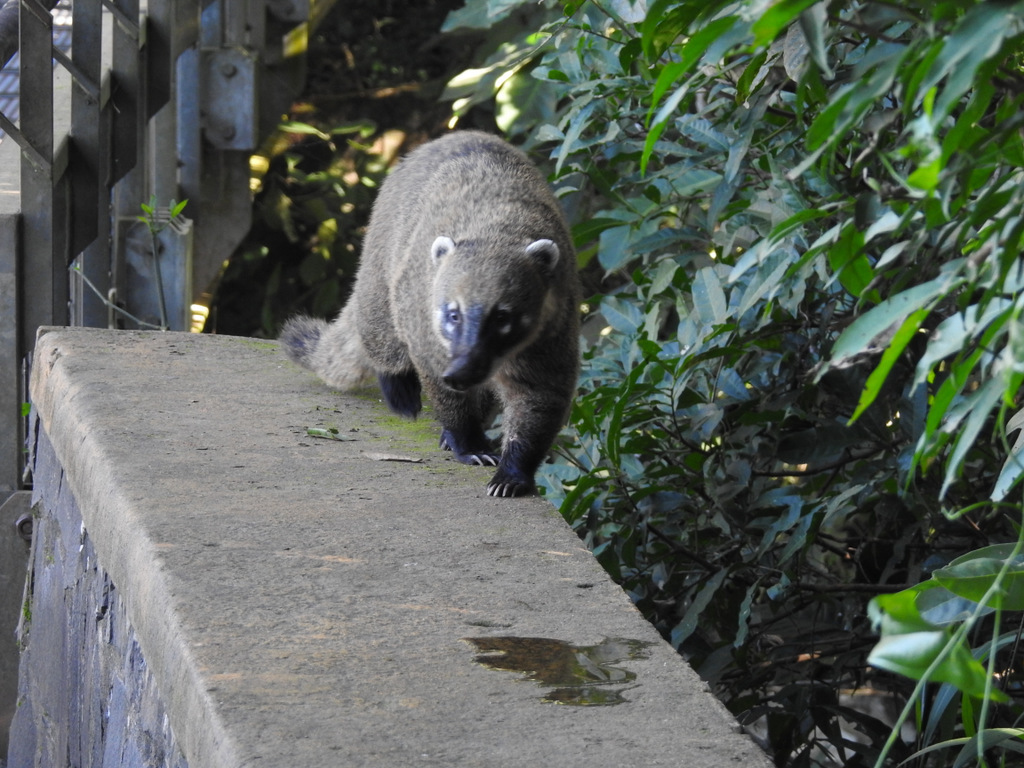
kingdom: Animalia
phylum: Chordata
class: Mammalia
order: Carnivora
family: Procyonidae
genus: Nasua
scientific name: Nasua nasua
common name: South american coati
